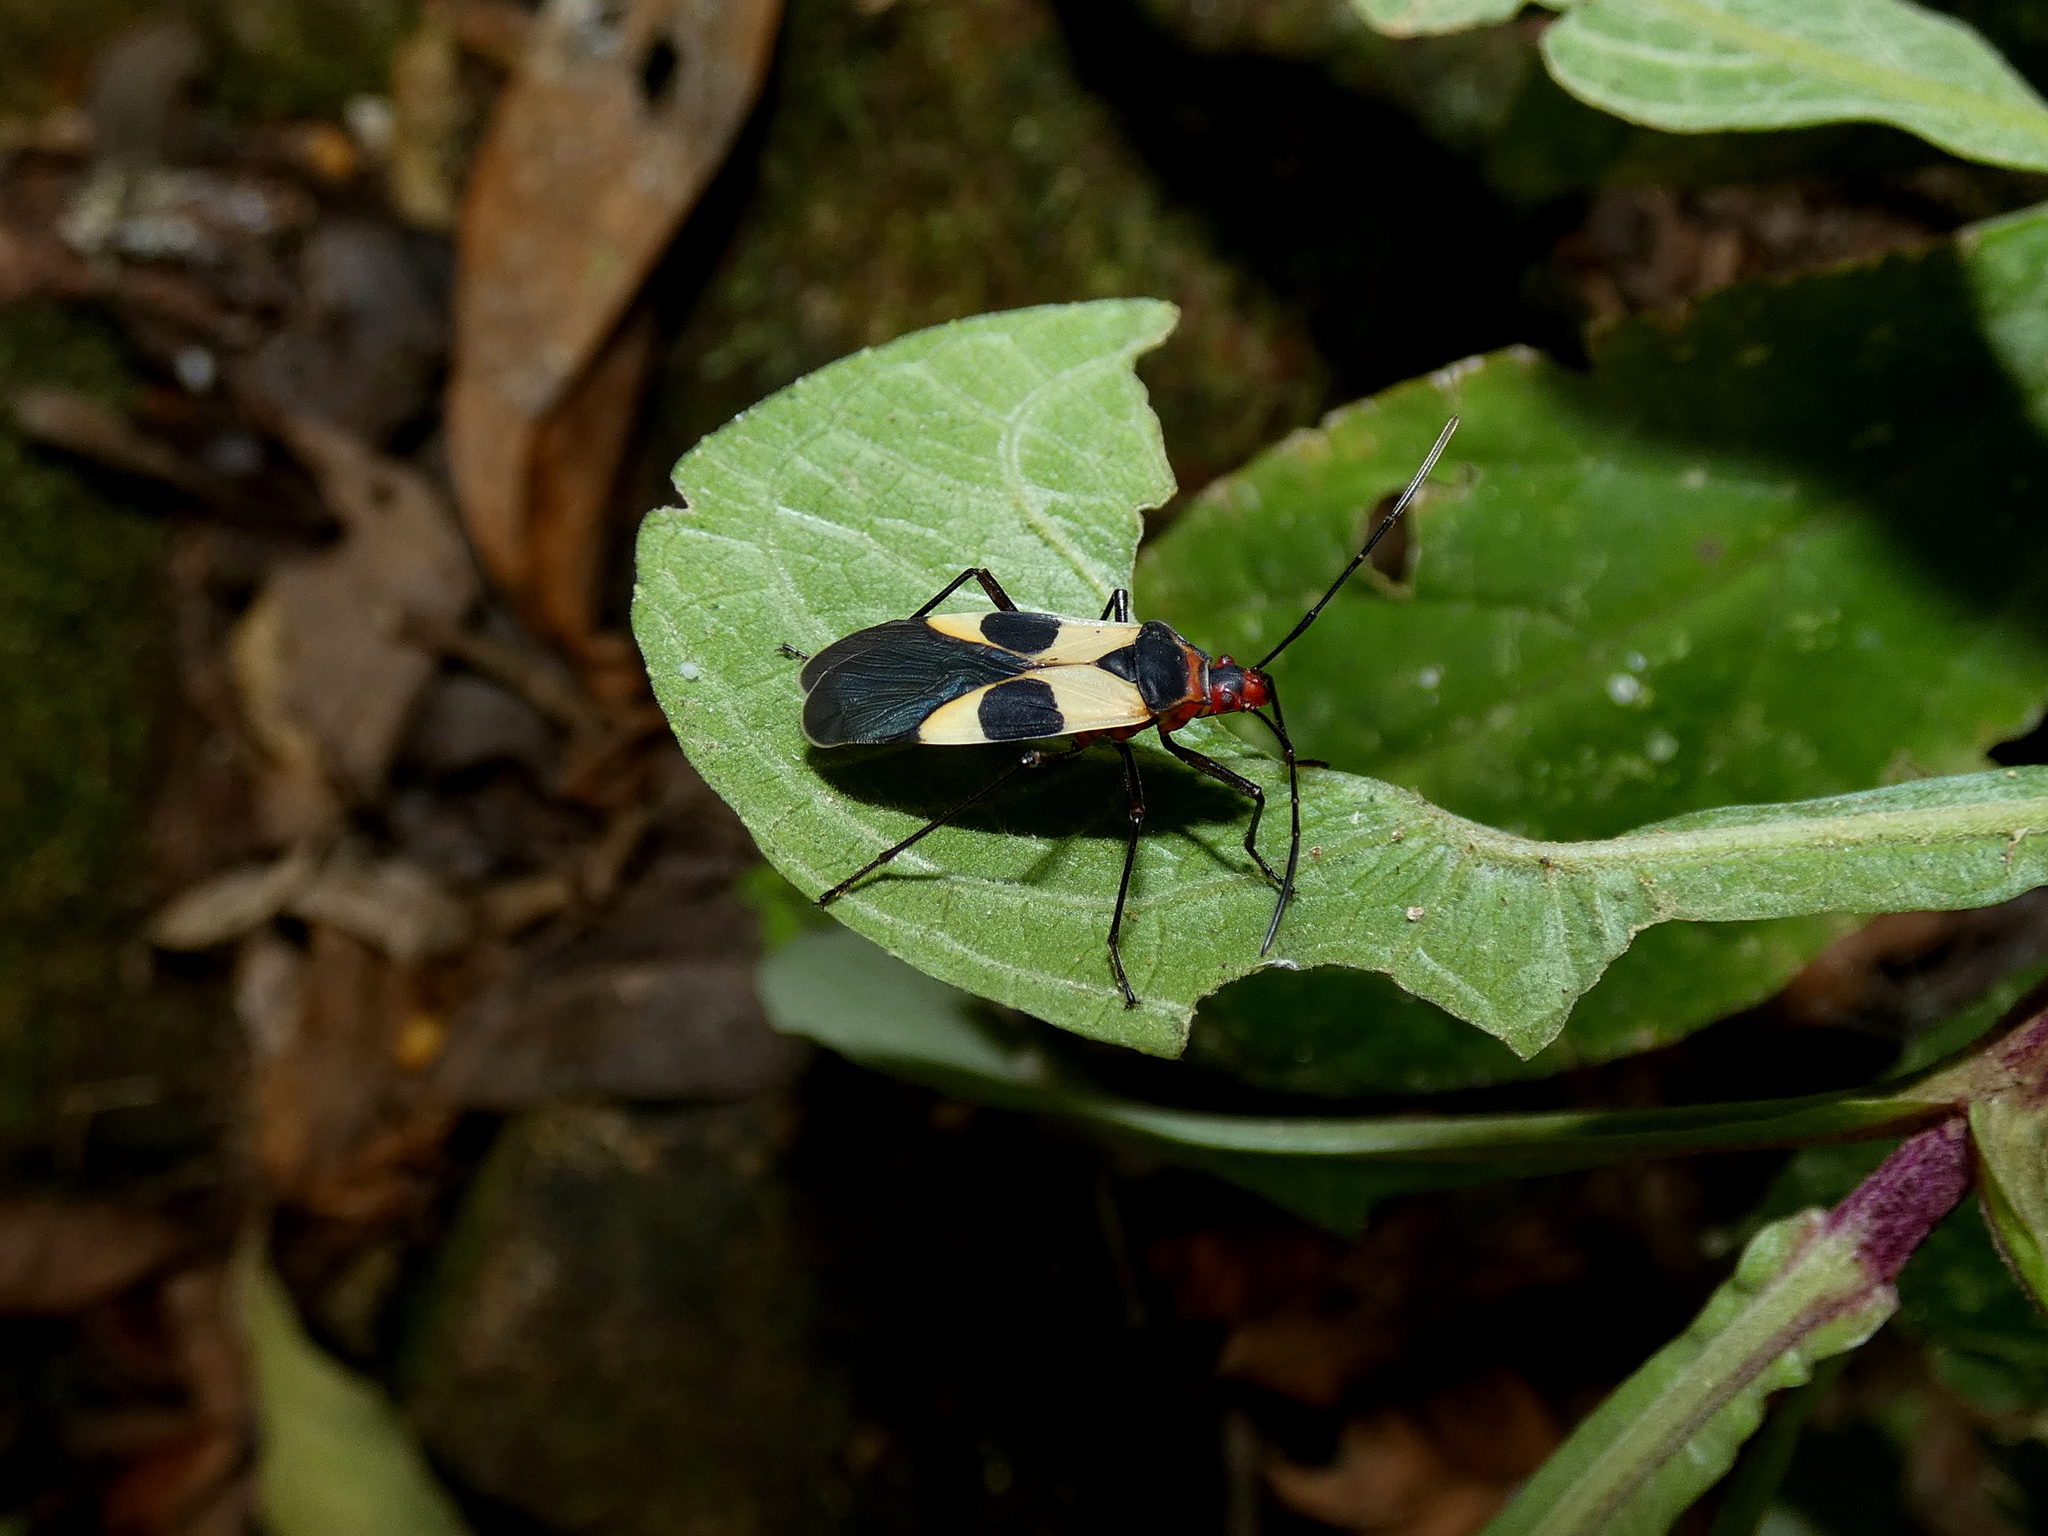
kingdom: Animalia
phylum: Arthropoda
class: Insecta
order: Hemiptera
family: Pyrrhocoridae
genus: Dysdercus
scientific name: Dysdercus lunulatus
